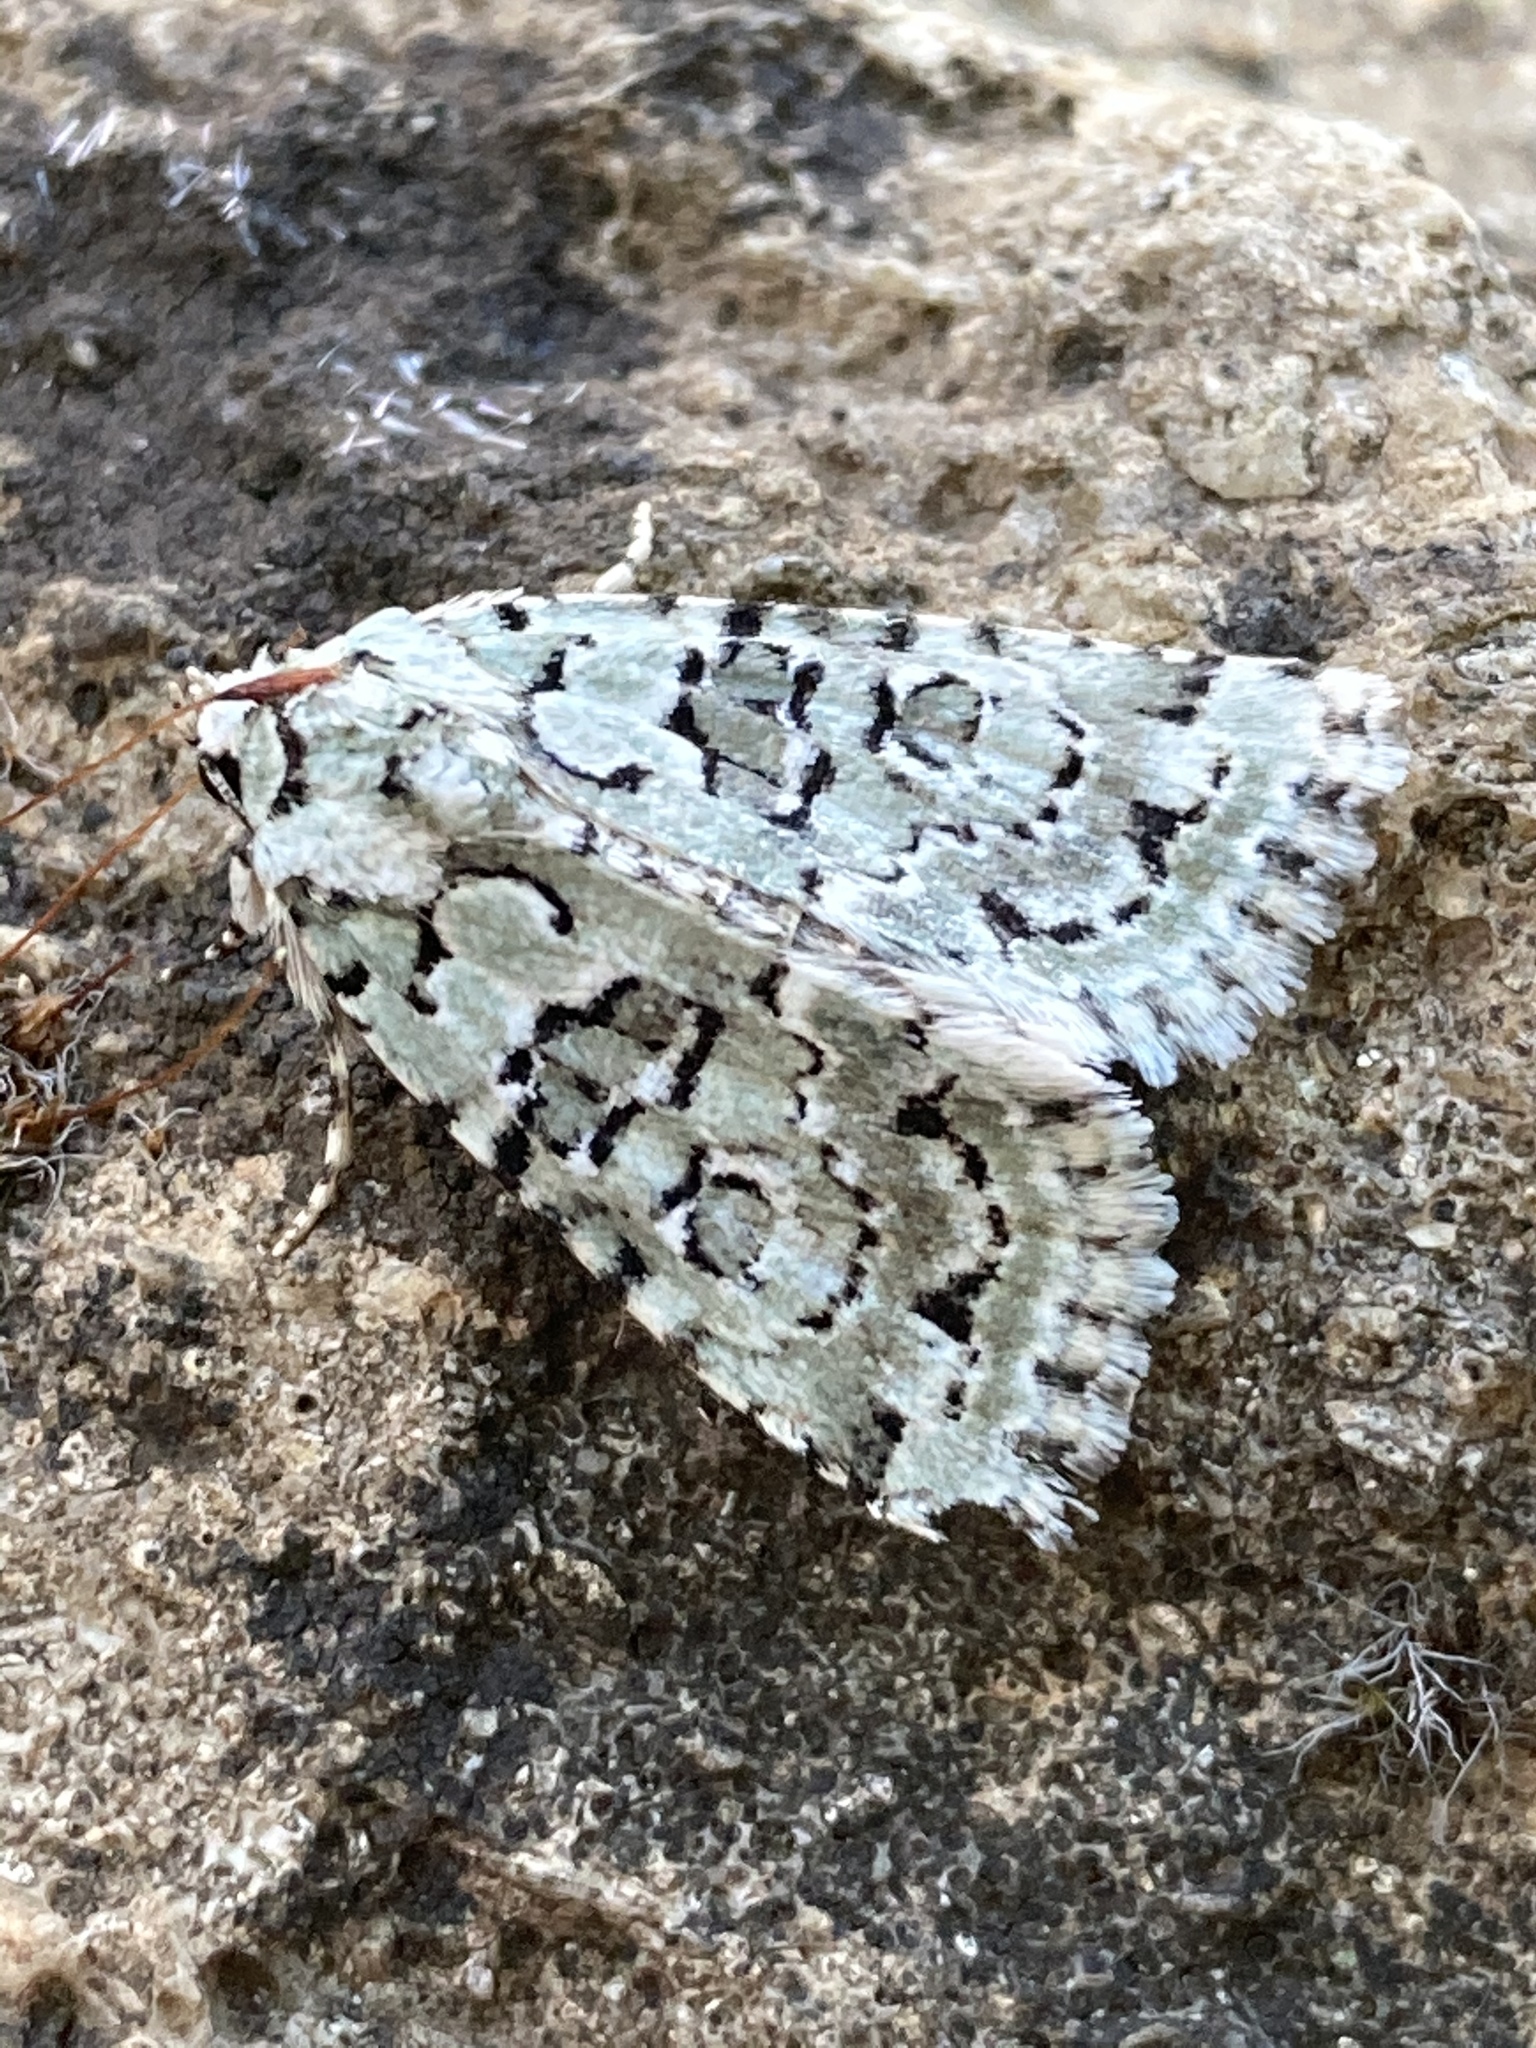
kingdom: Animalia
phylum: Arthropoda
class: Insecta
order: Lepidoptera
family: Noctuidae
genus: Nyctobrya
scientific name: Nyctobrya muralis
